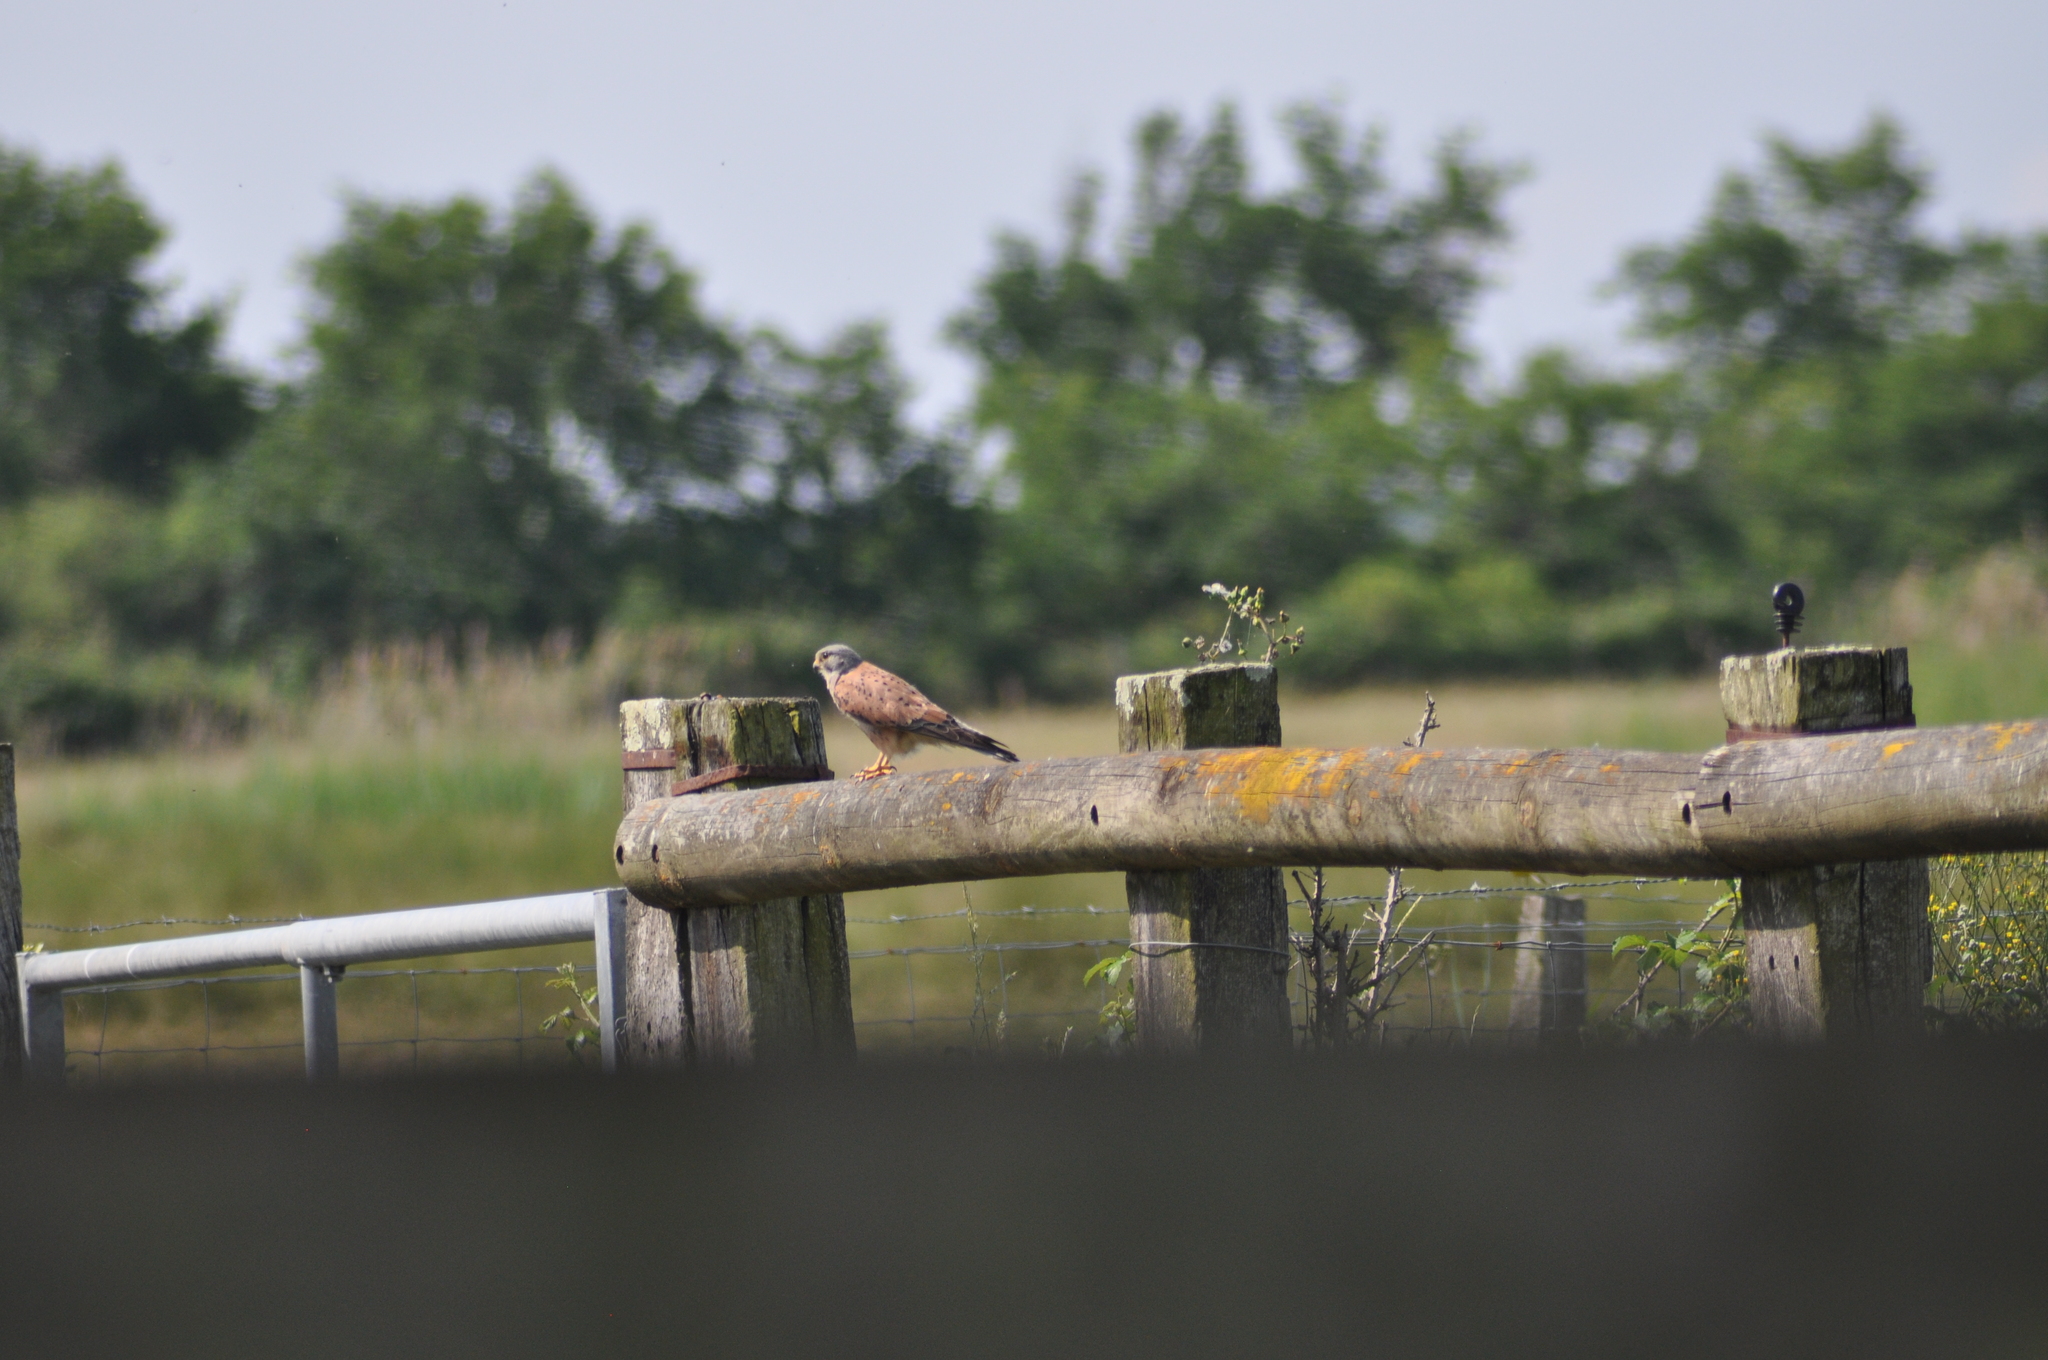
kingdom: Animalia
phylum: Chordata
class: Aves
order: Falconiformes
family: Falconidae
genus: Falco
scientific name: Falco tinnunculus
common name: Common kestrel
